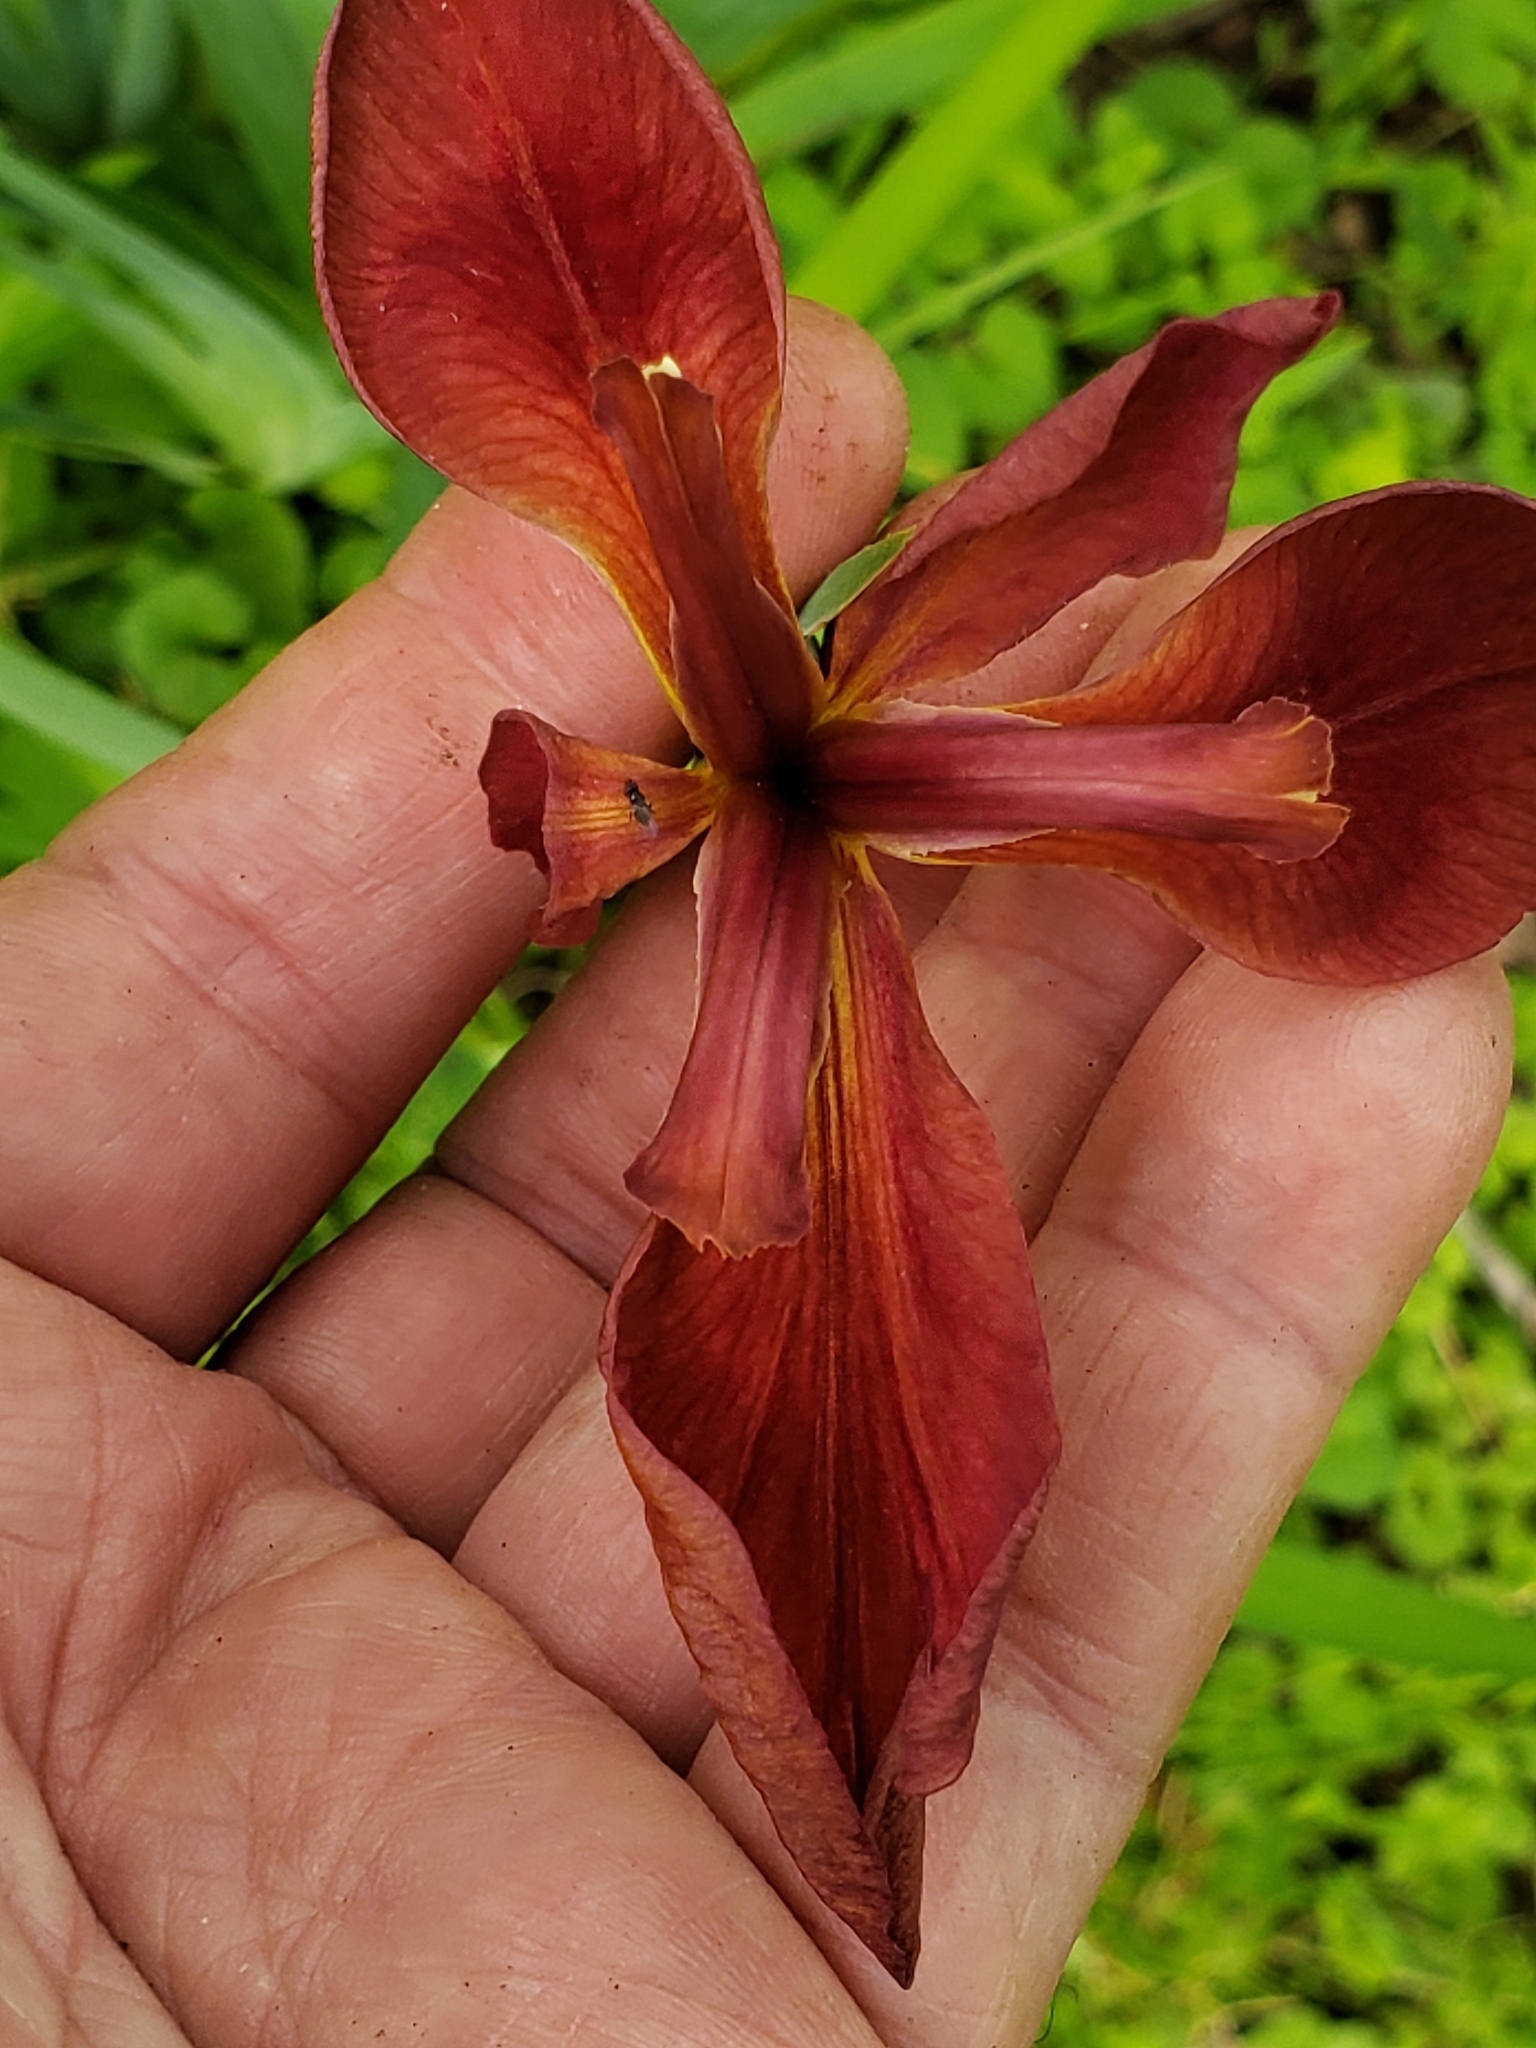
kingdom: Plantae
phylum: Tracheophyta
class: Liliopsida
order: Asparagales
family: Iridaceae
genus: Iris
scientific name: Iris fulva
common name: Copper iris
